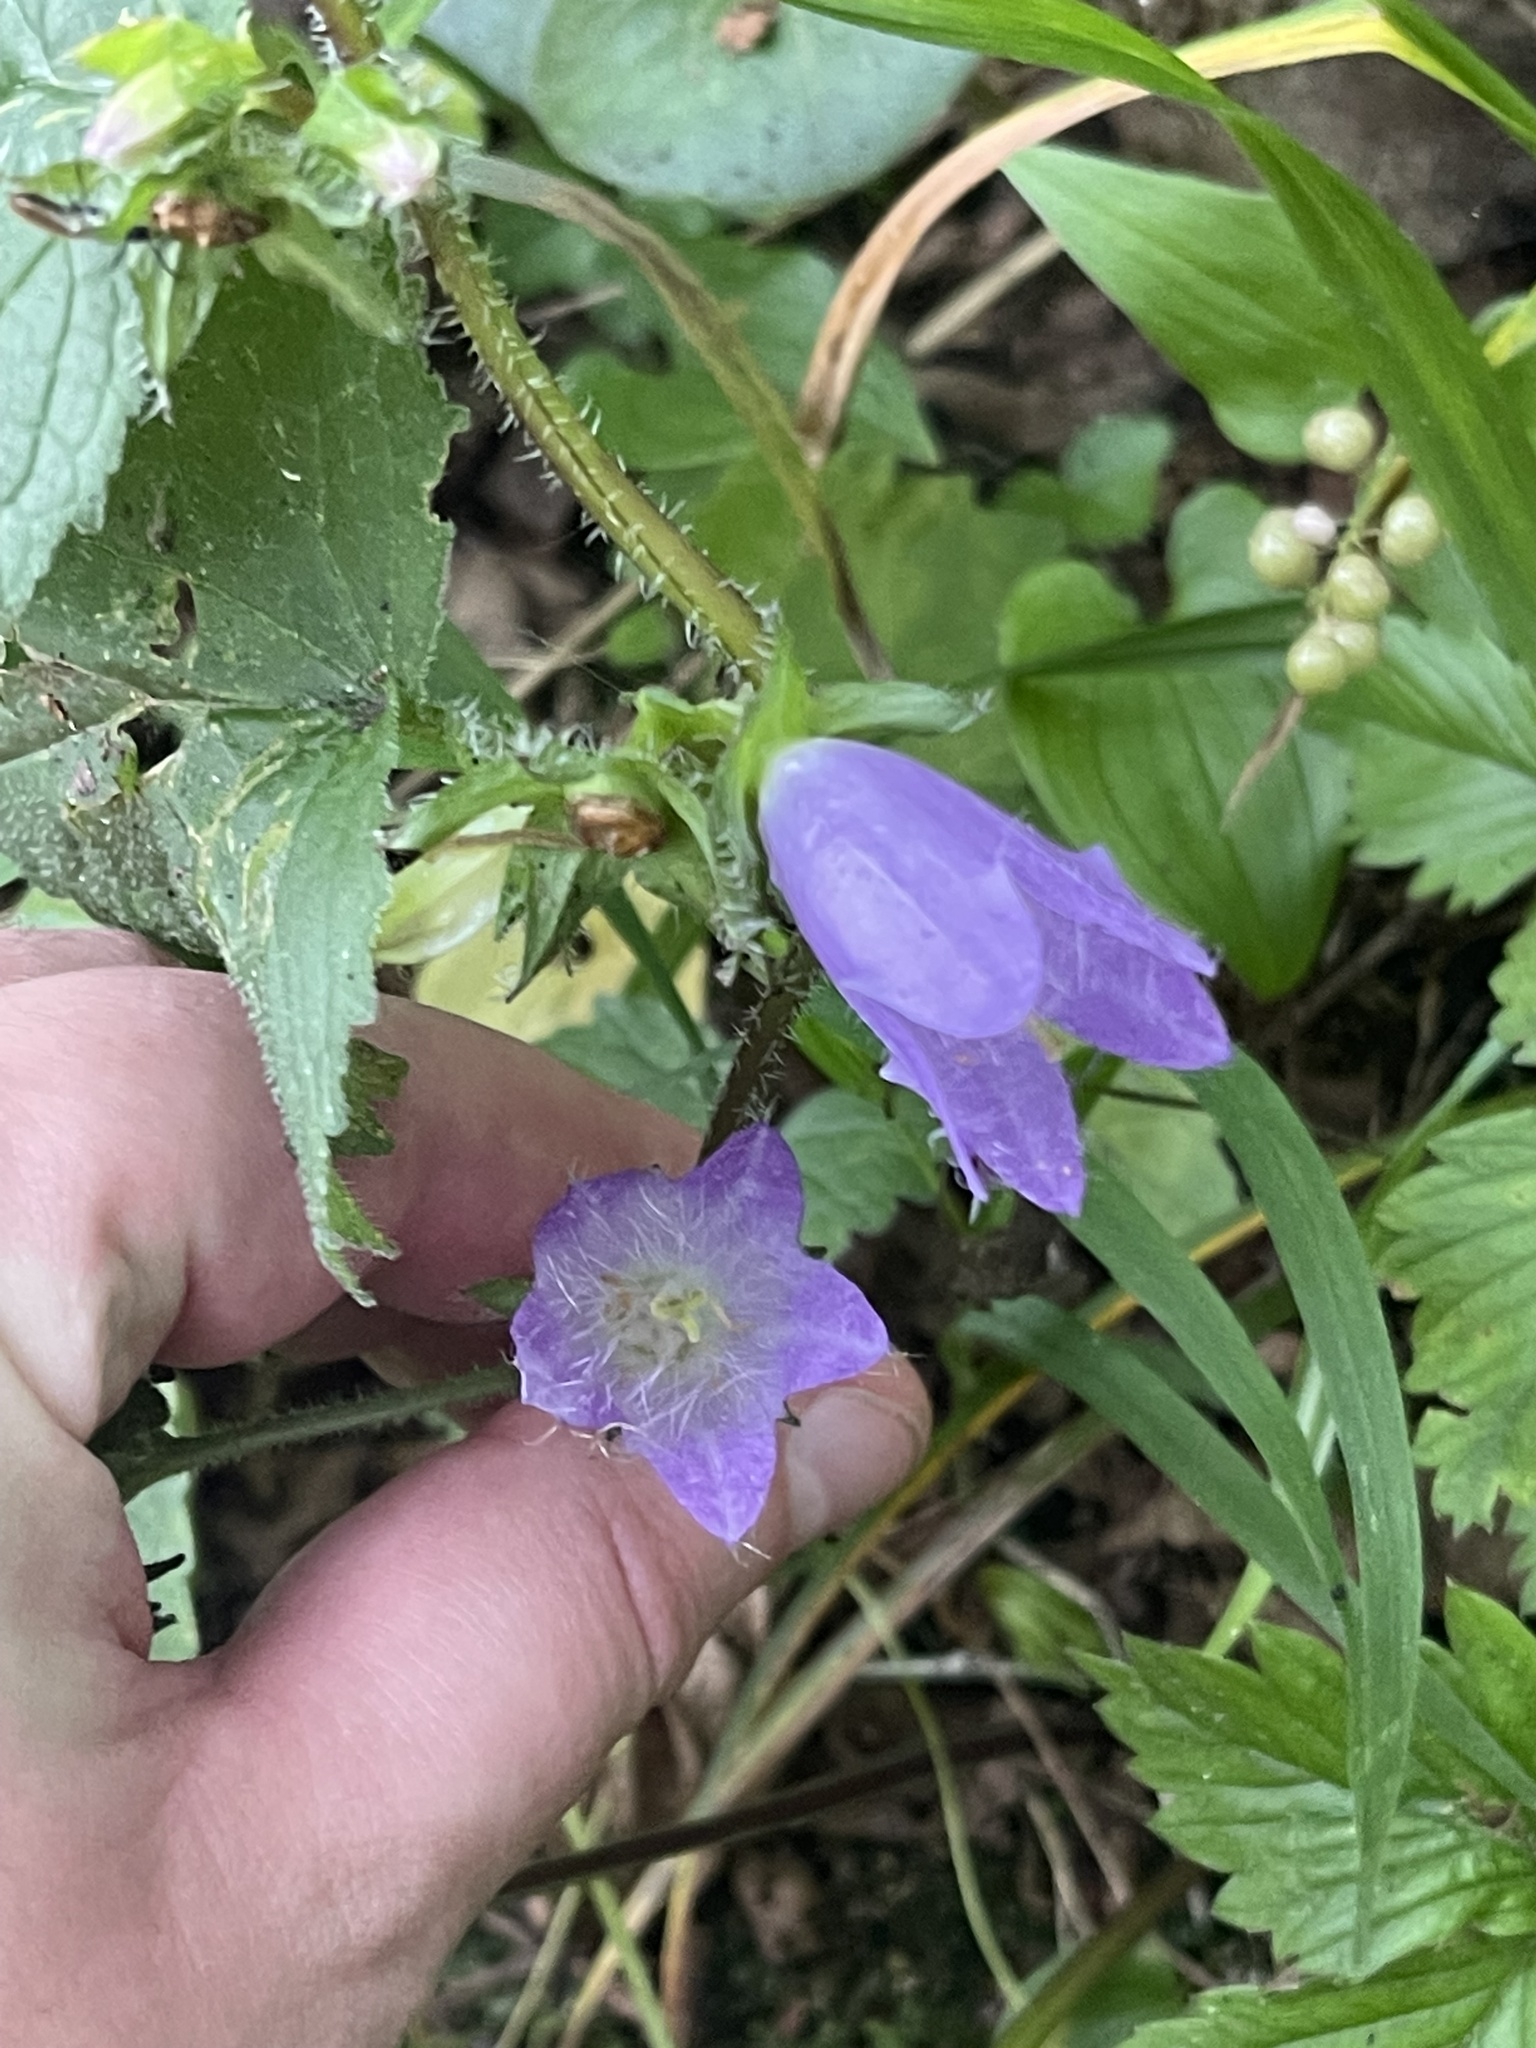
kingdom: Plantae
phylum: Tracheophyta
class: Magnoliopsida
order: Asterales
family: Campanulaceae
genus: Campanula
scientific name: Campanula trachelium
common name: Nettle-leaved bellflower
